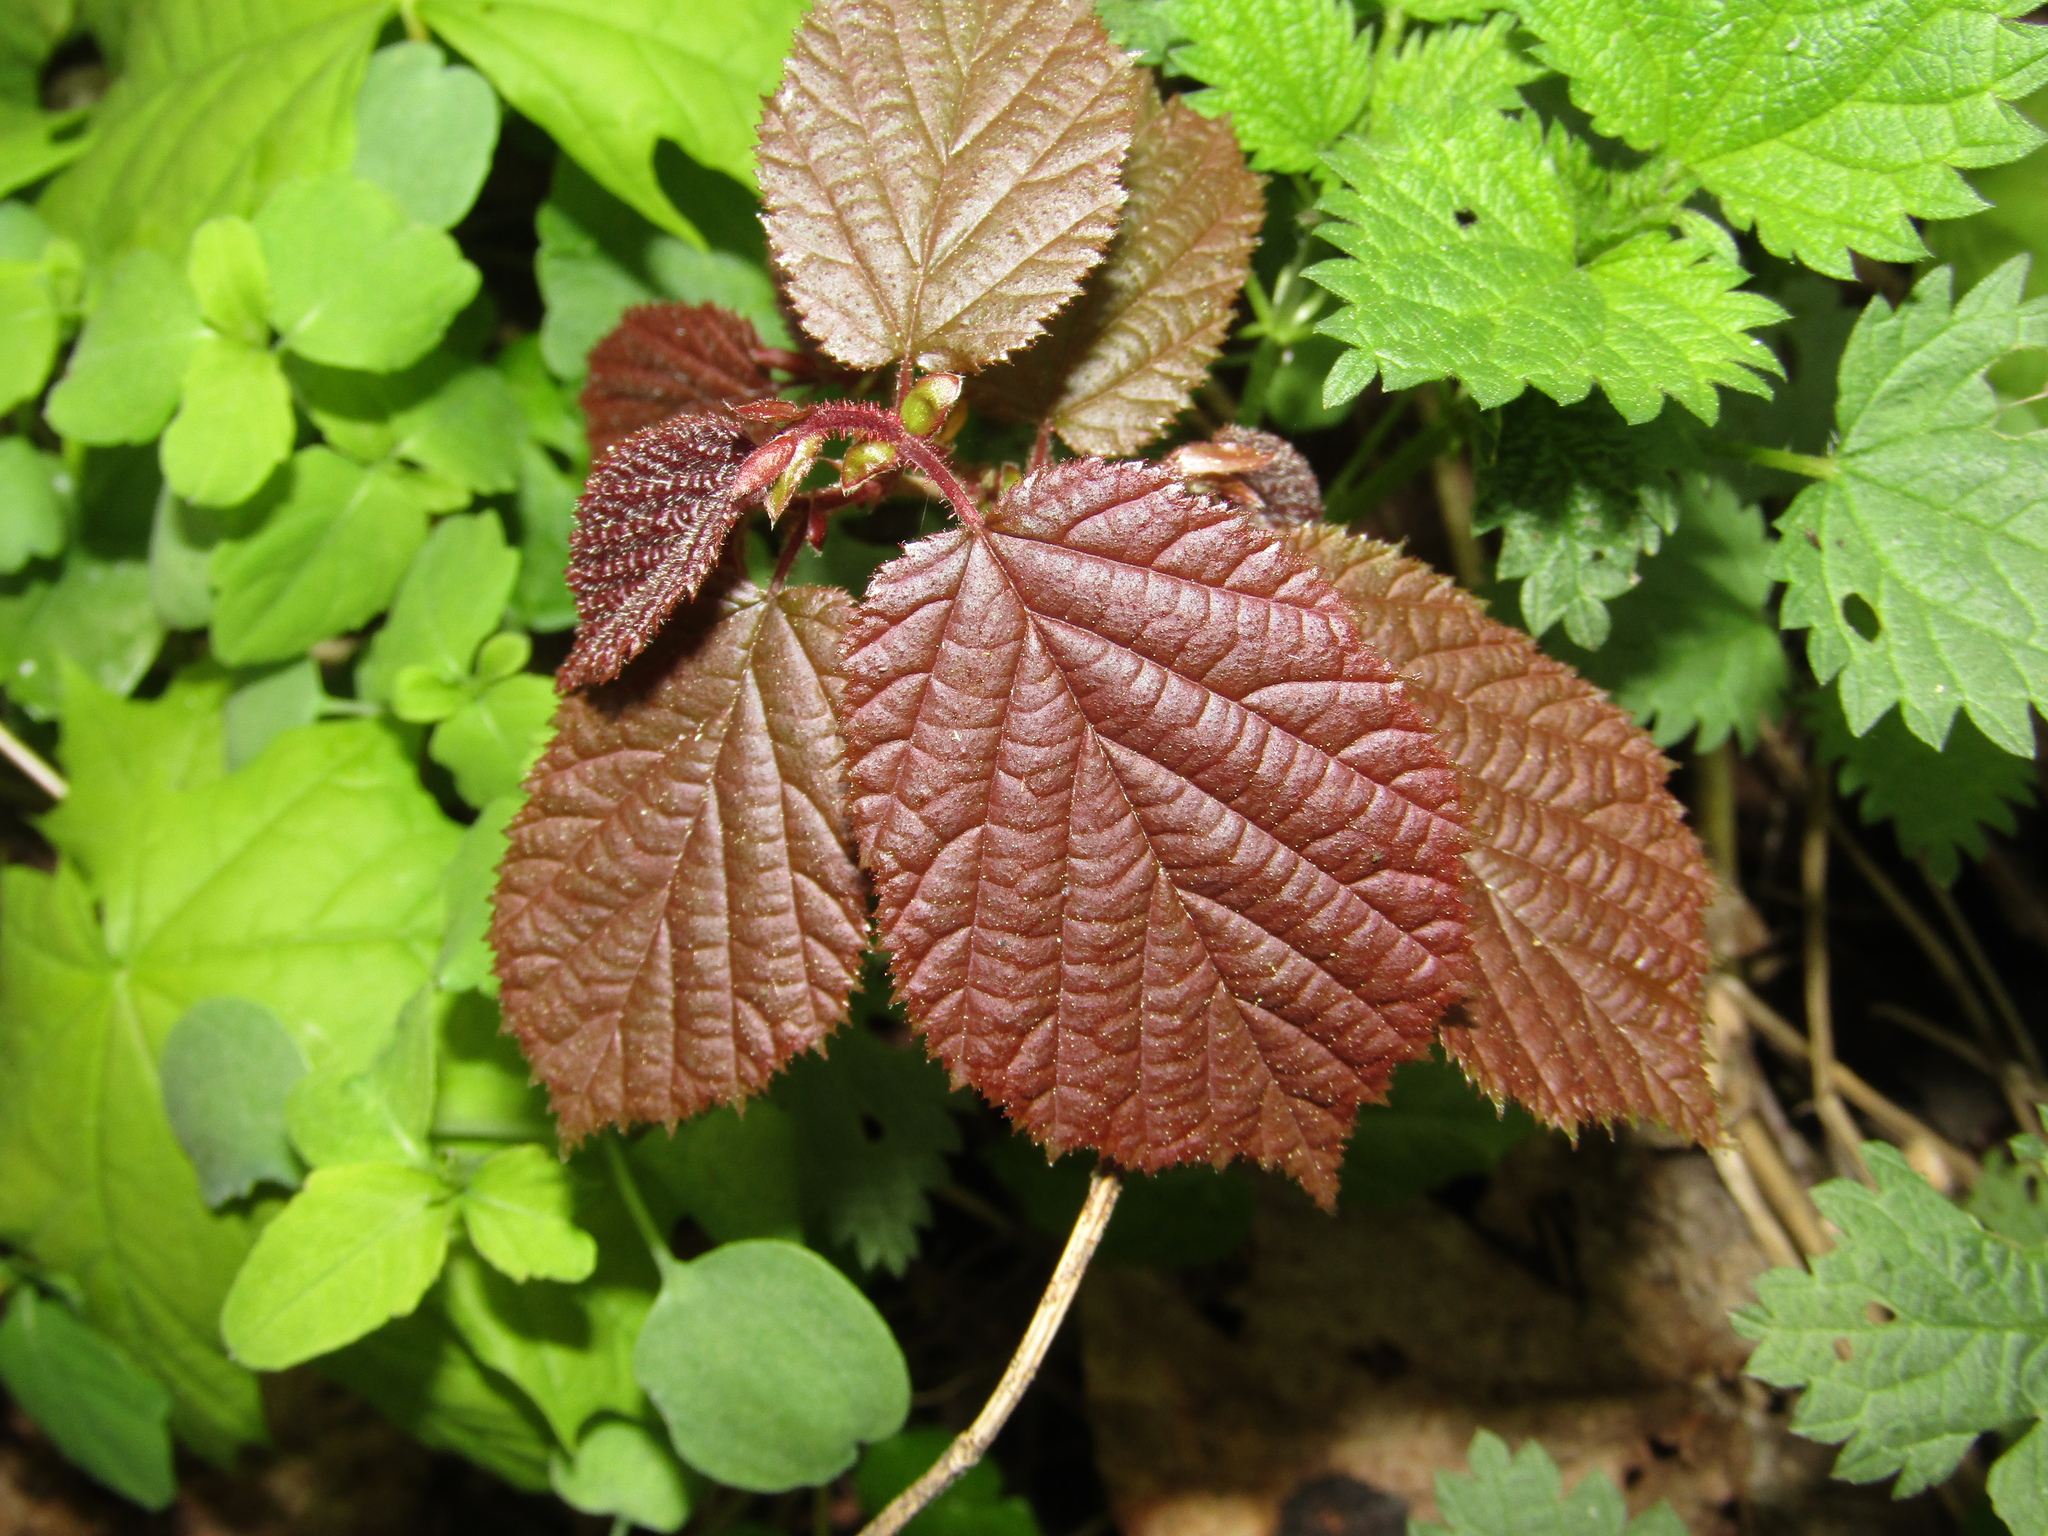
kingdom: Plantae
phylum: Tracheophyta
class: Magnoliopsida
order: Fagales
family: Betulaceae
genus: Corylus
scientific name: Corylus avellana
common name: European hazel
